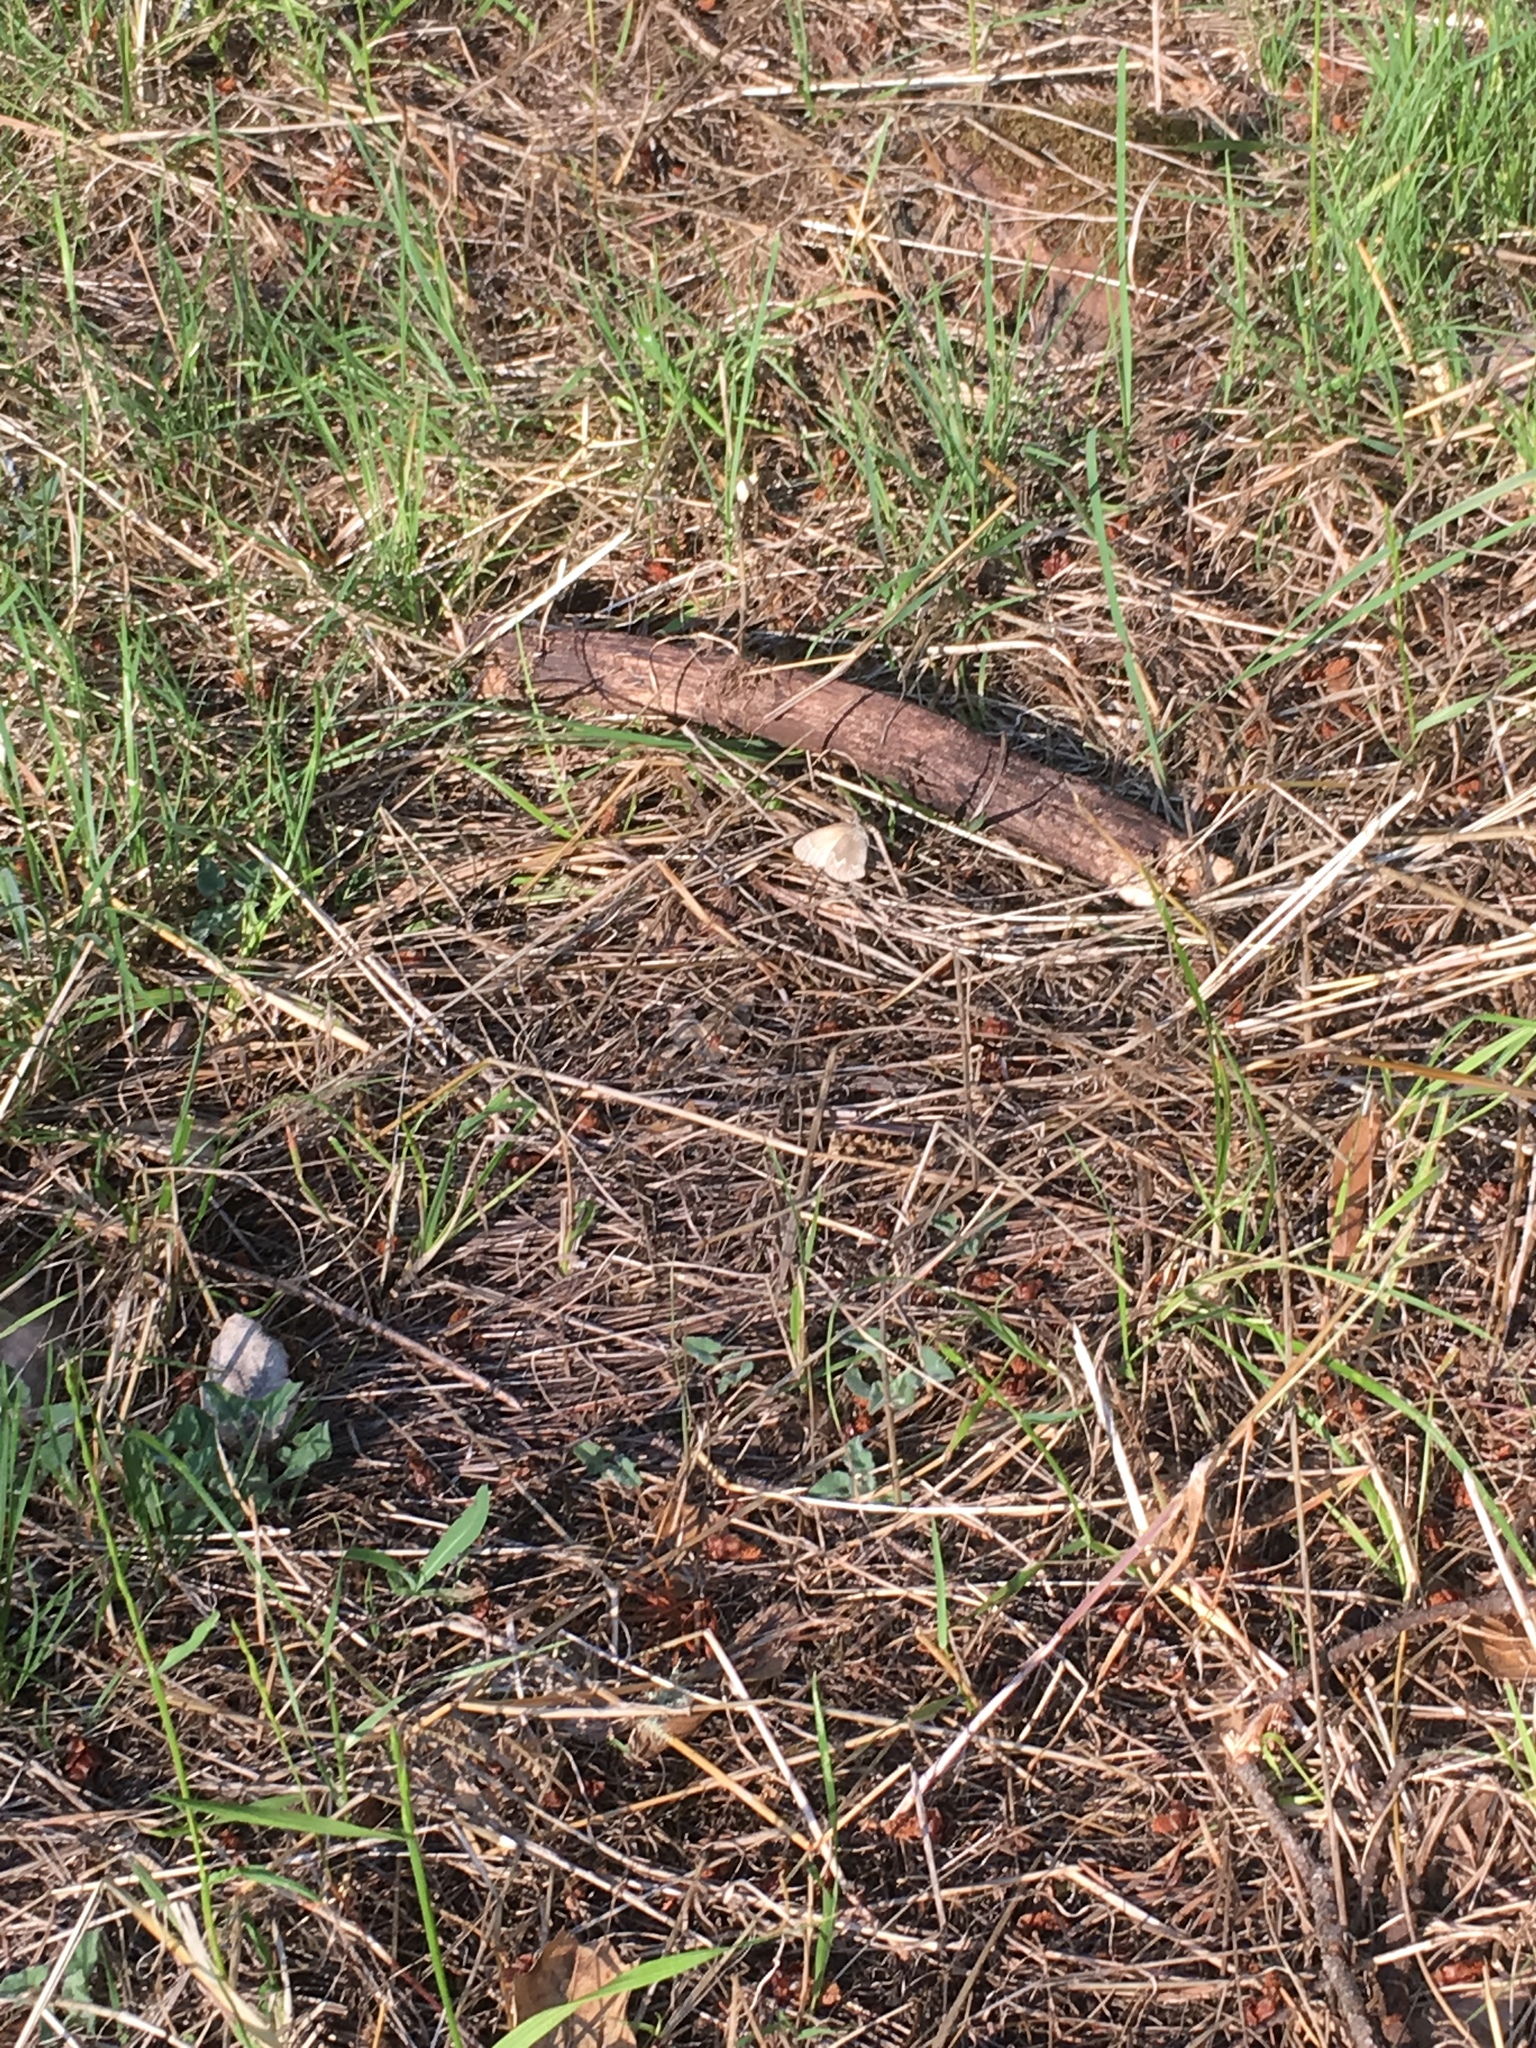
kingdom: Animalia
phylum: Arthropoda
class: Insecta
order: Lepidoptera
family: Nymphalidae
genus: Coenonympha
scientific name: Coenonympha california
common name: Common ringlet
